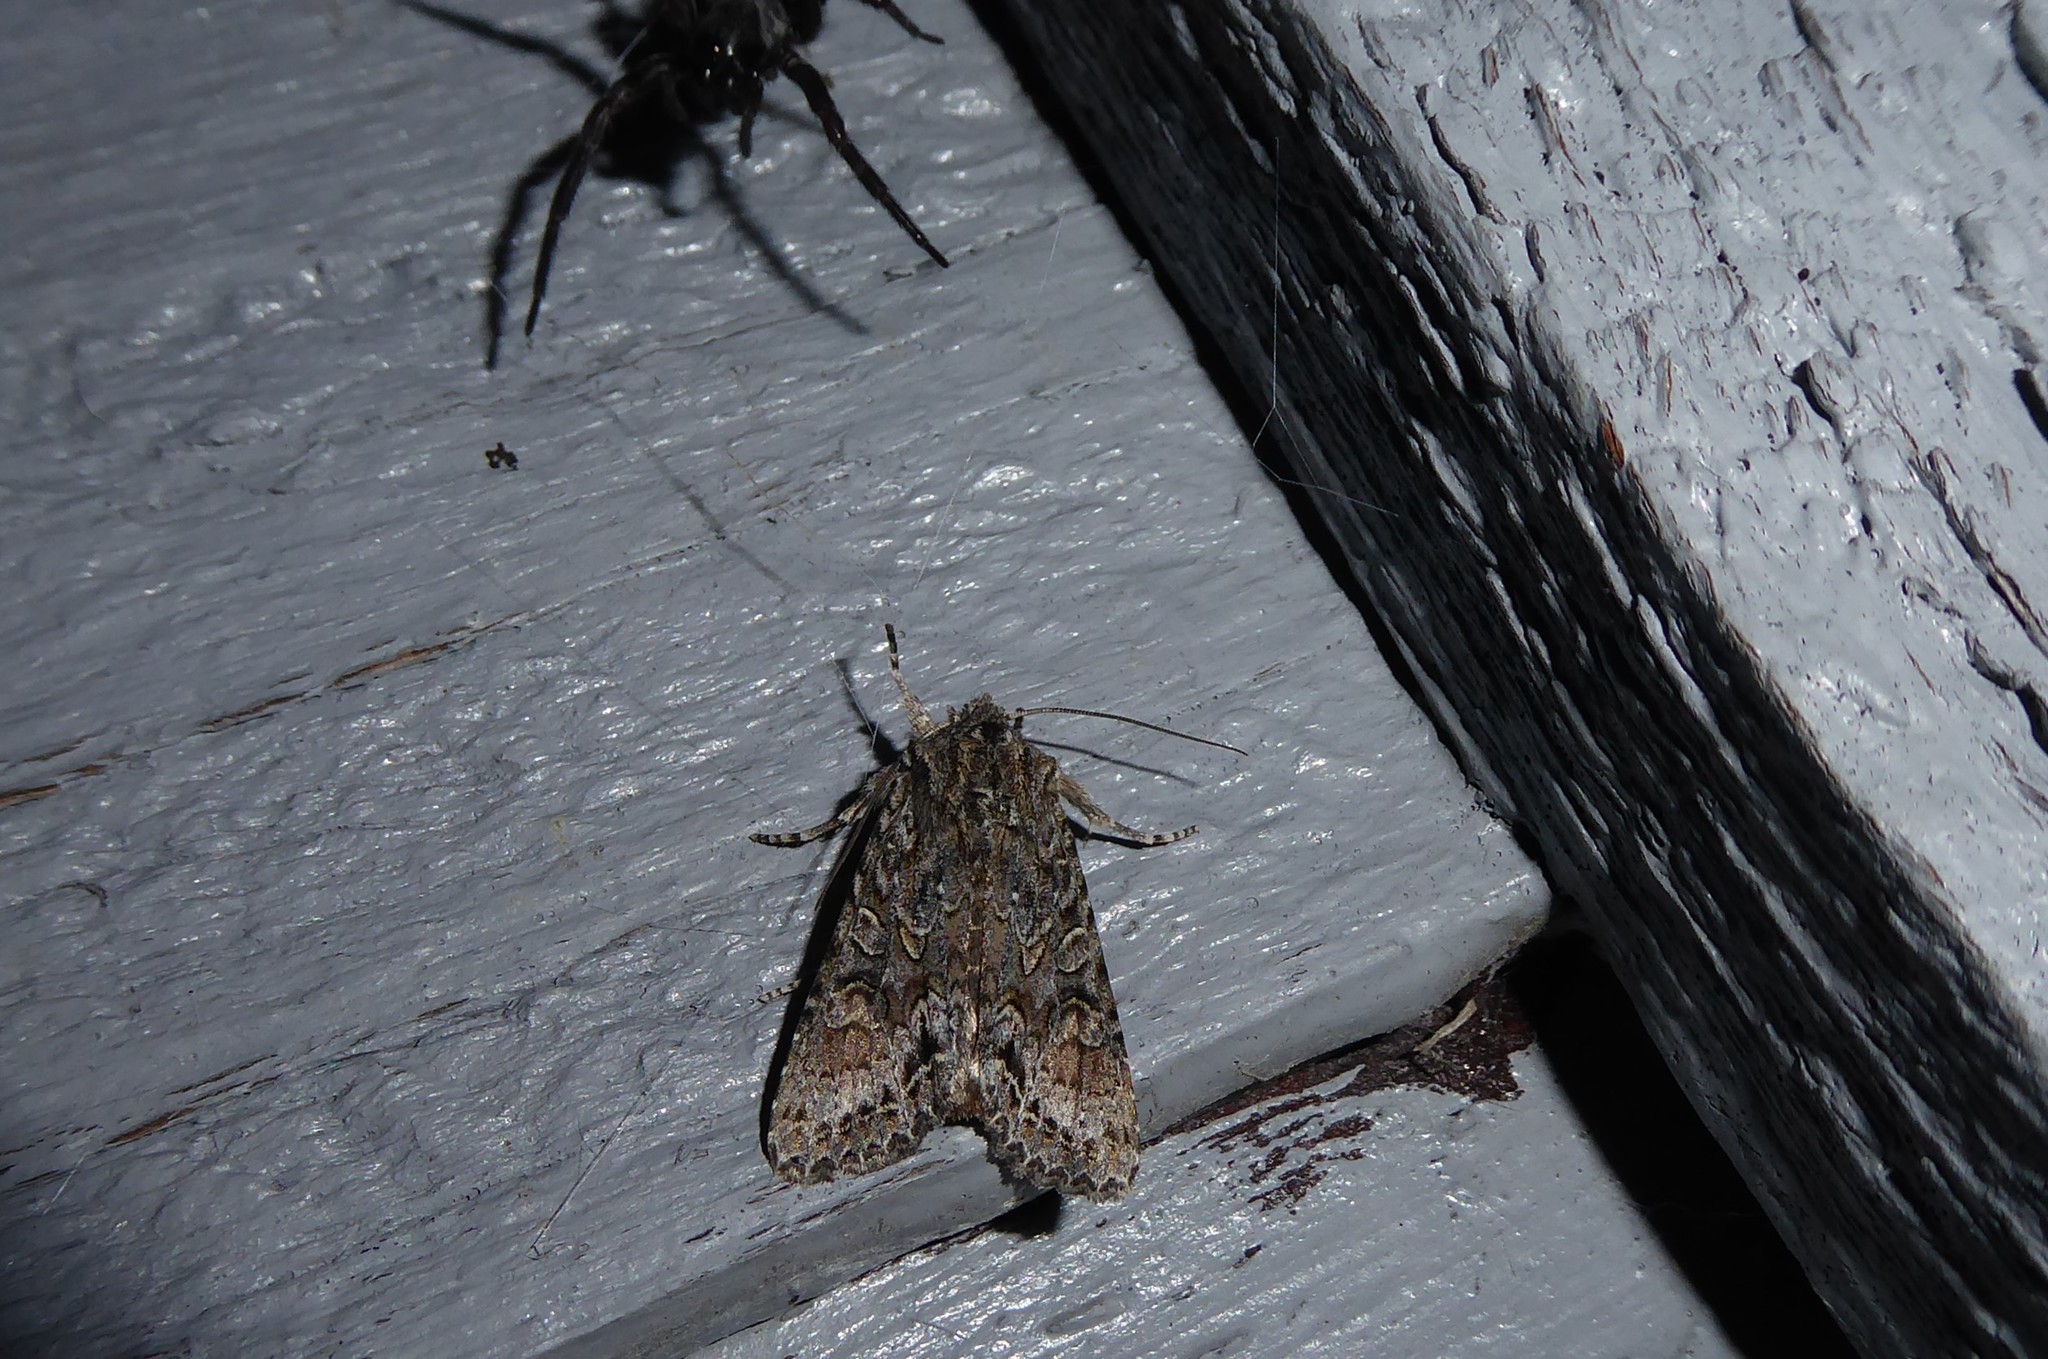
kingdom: Animalia
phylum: Arthropoda
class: Insecta
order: Lepidoptera
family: Noctuidae
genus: Ichneutica
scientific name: Ichneutica mutans
